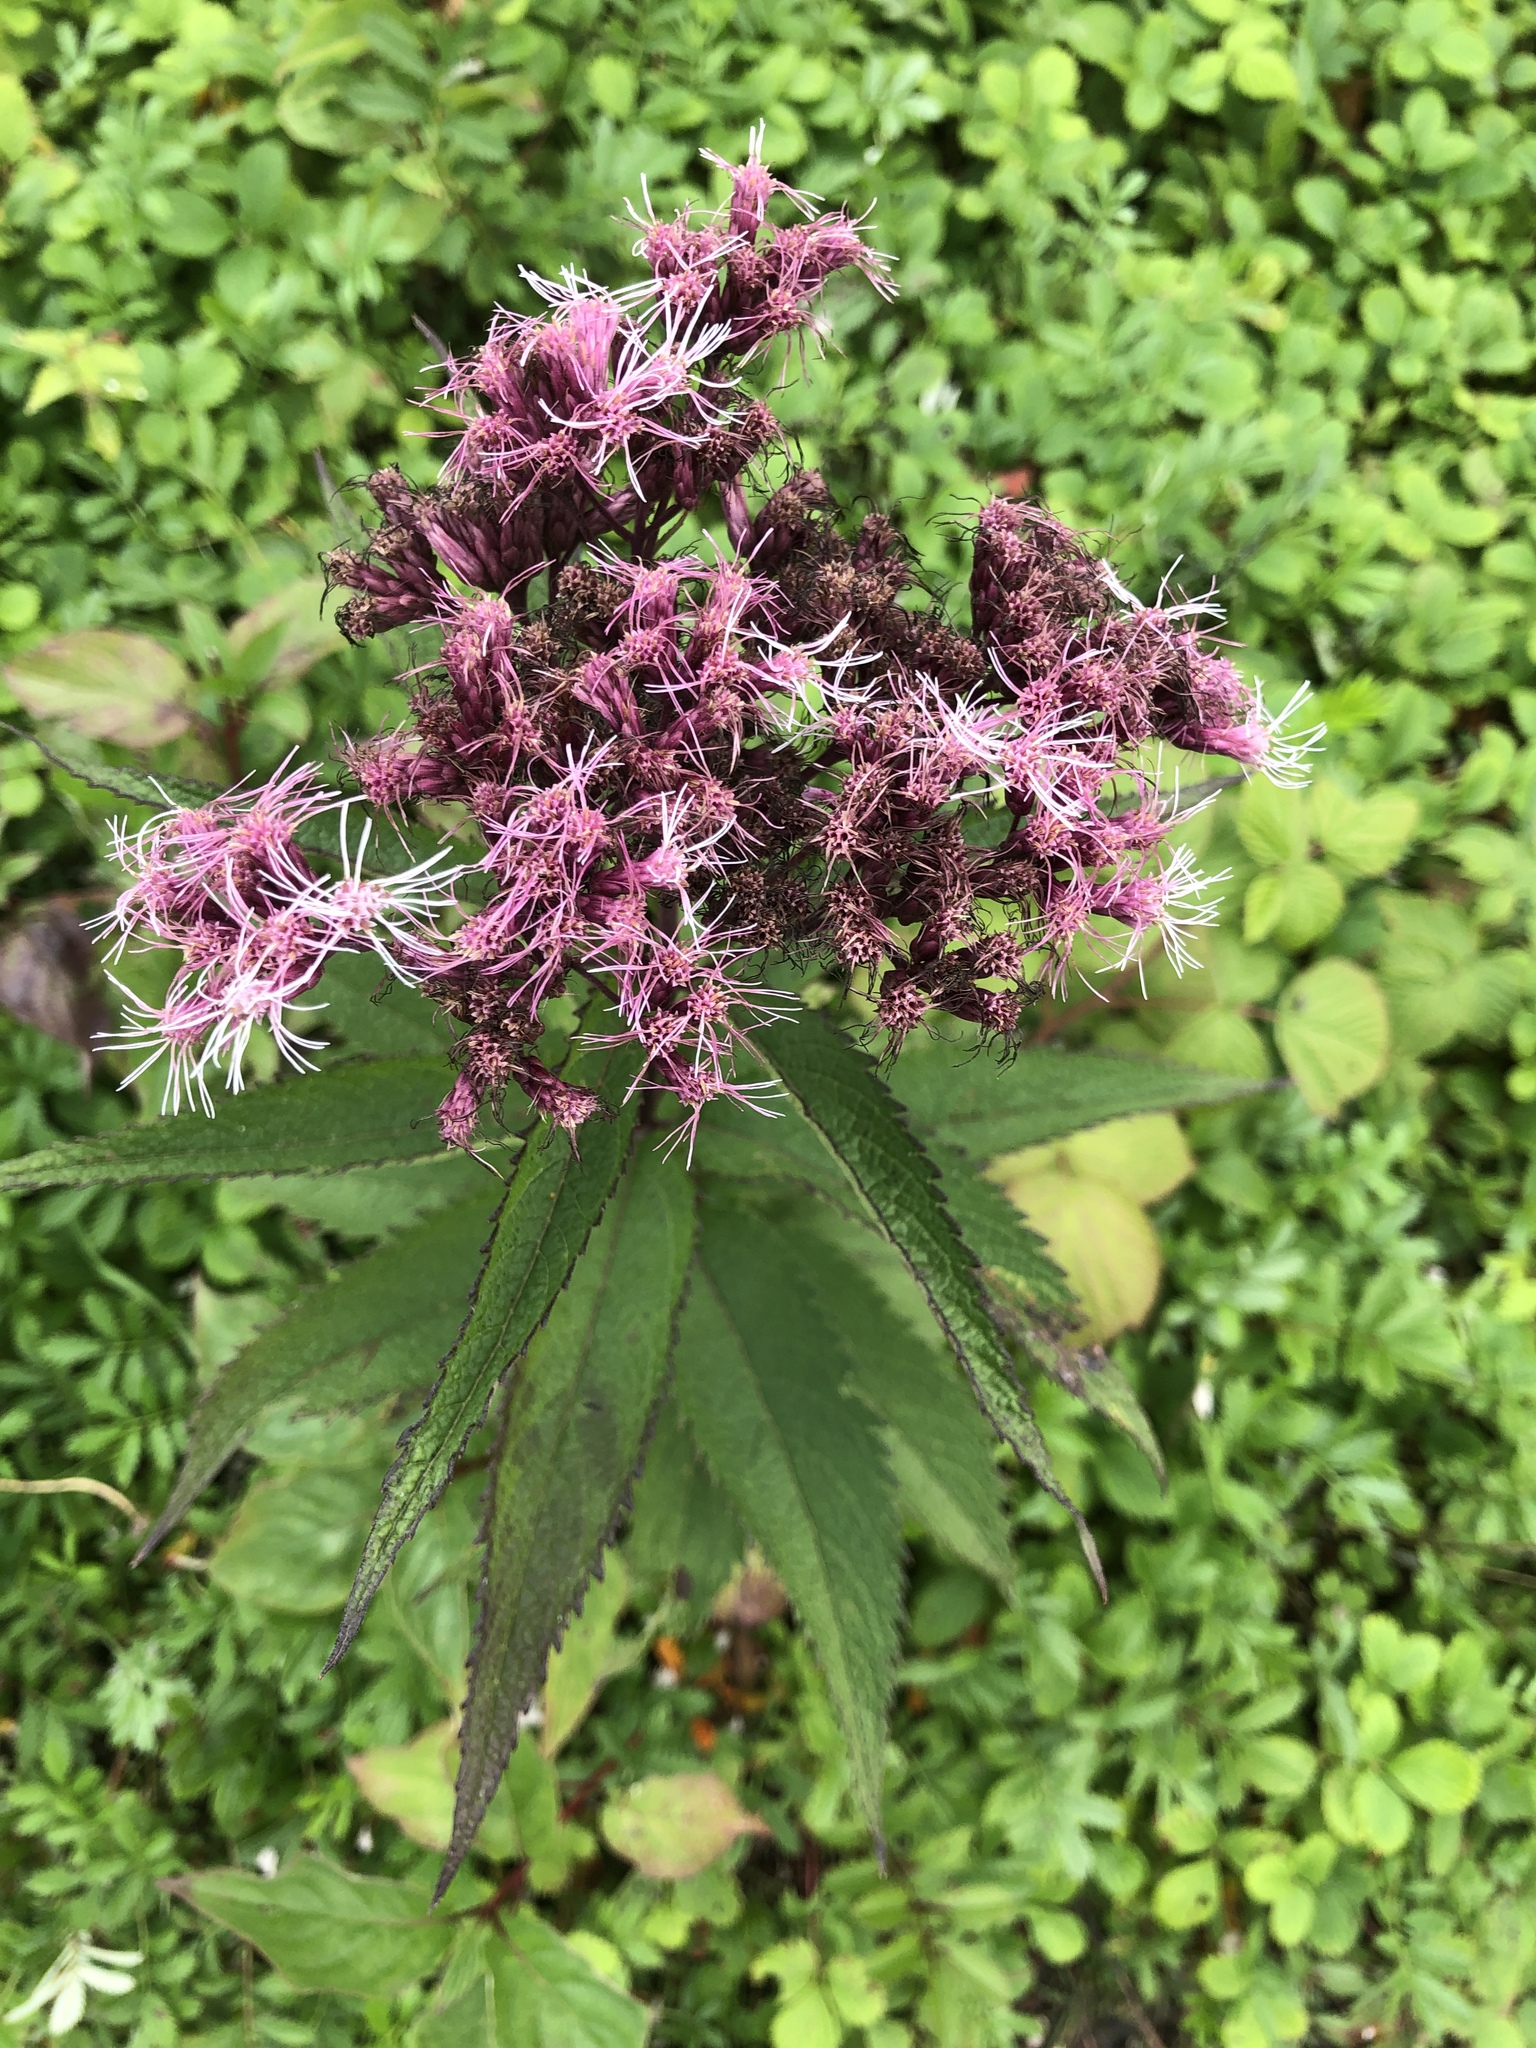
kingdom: Plantae
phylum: Tracheophyta
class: Magnoliopsida
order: Asterales
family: Asteraceae
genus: Eutrochium
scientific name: Eutrochium maculatum
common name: Spotted joe pye weed
